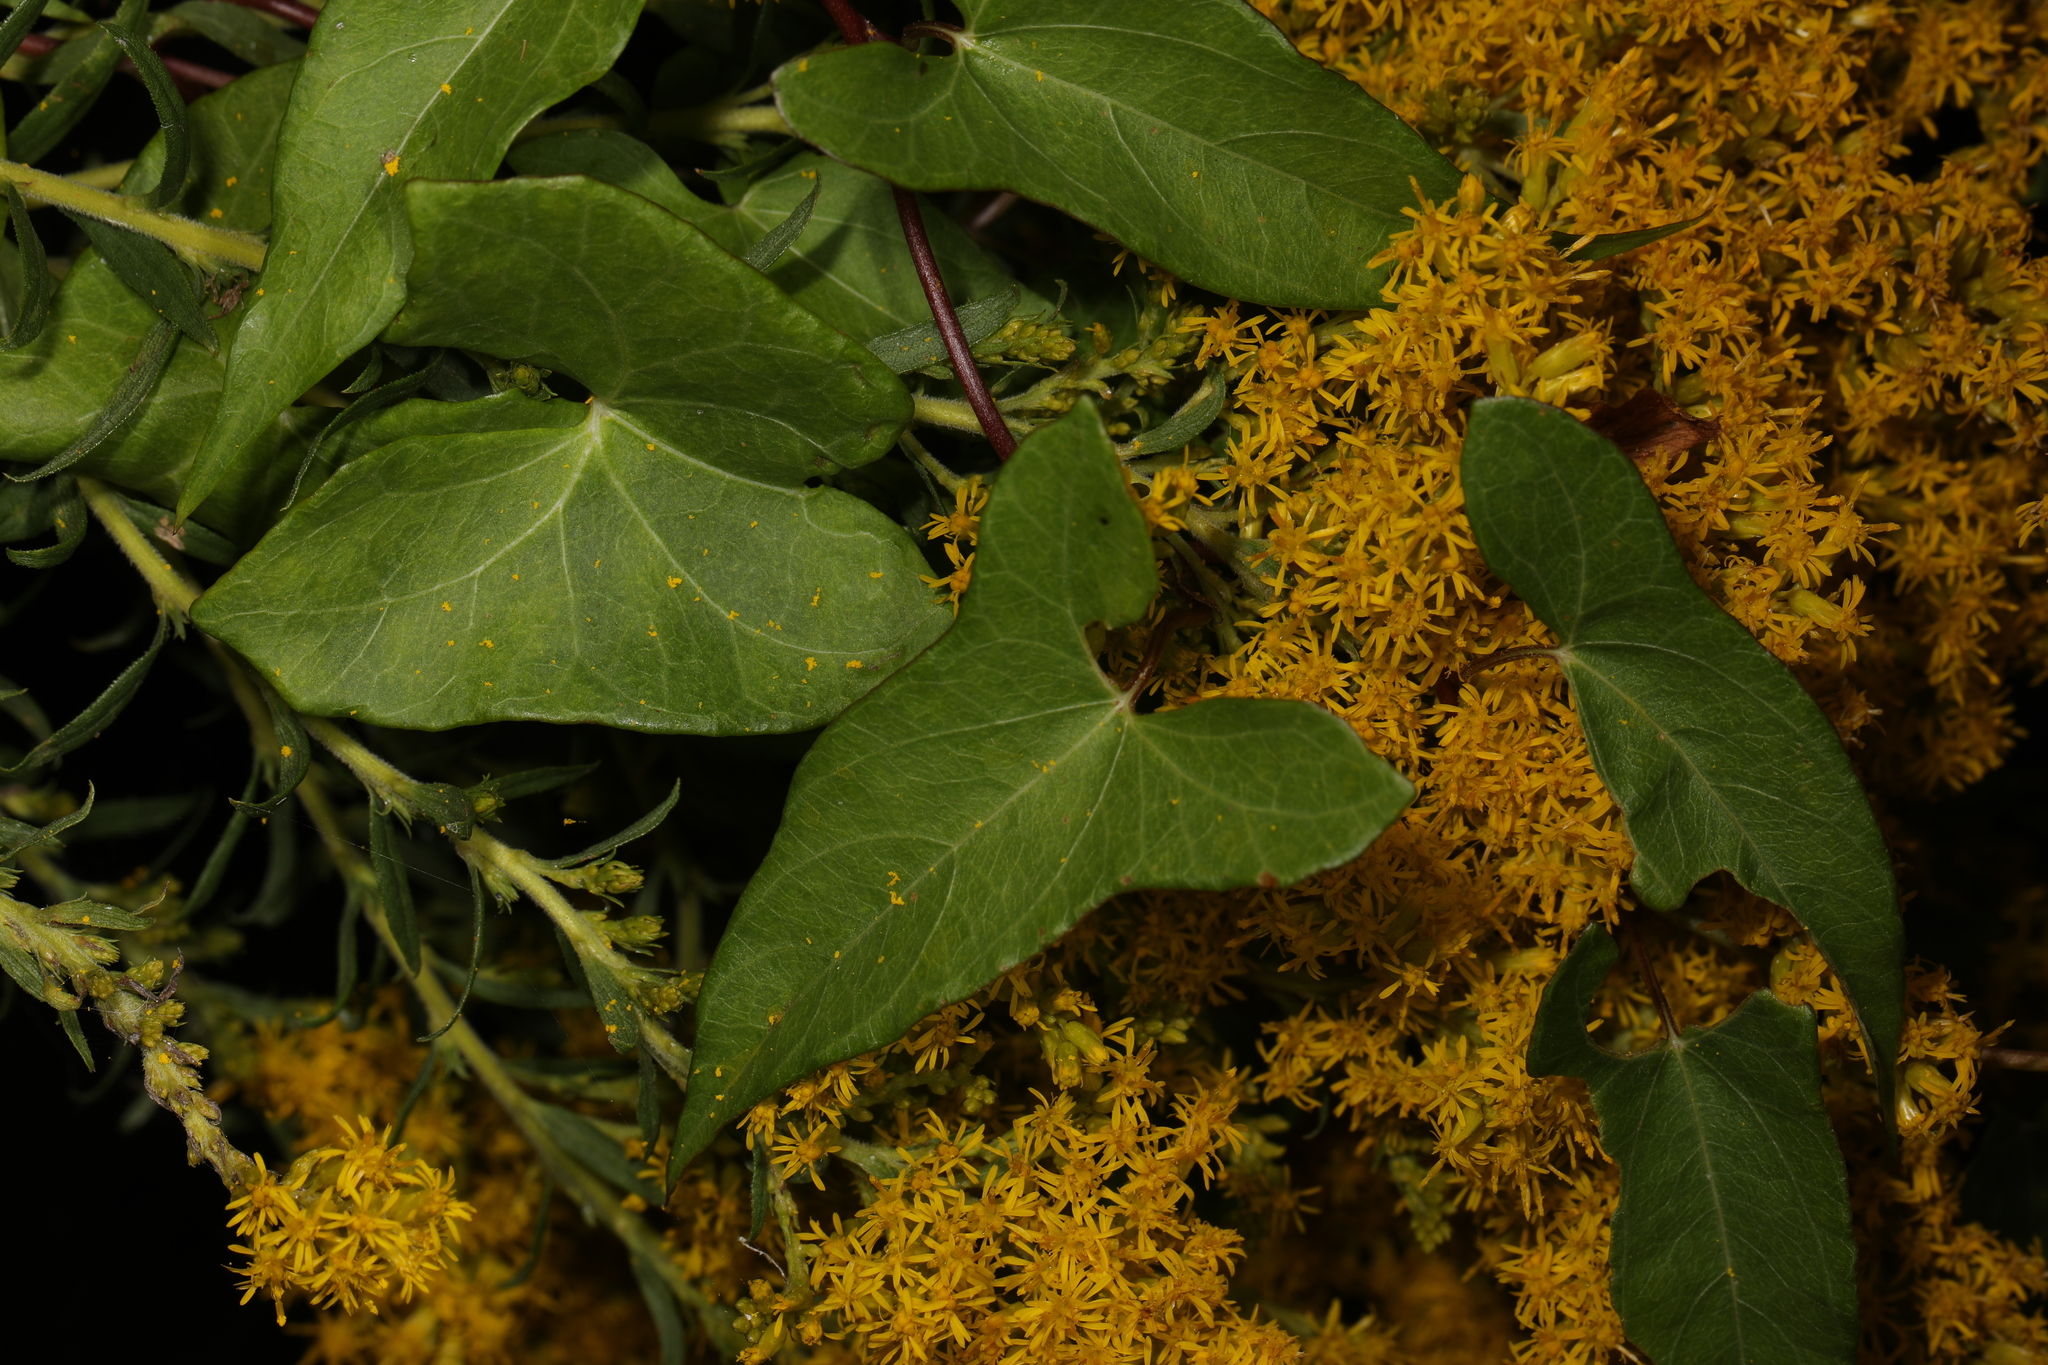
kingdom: Plantae
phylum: Tracheophyta
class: Magnoliopsida
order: Solanales
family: Convolvulaceae
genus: Calystegia
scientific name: Calystegia sepium
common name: Hedge bindweed
